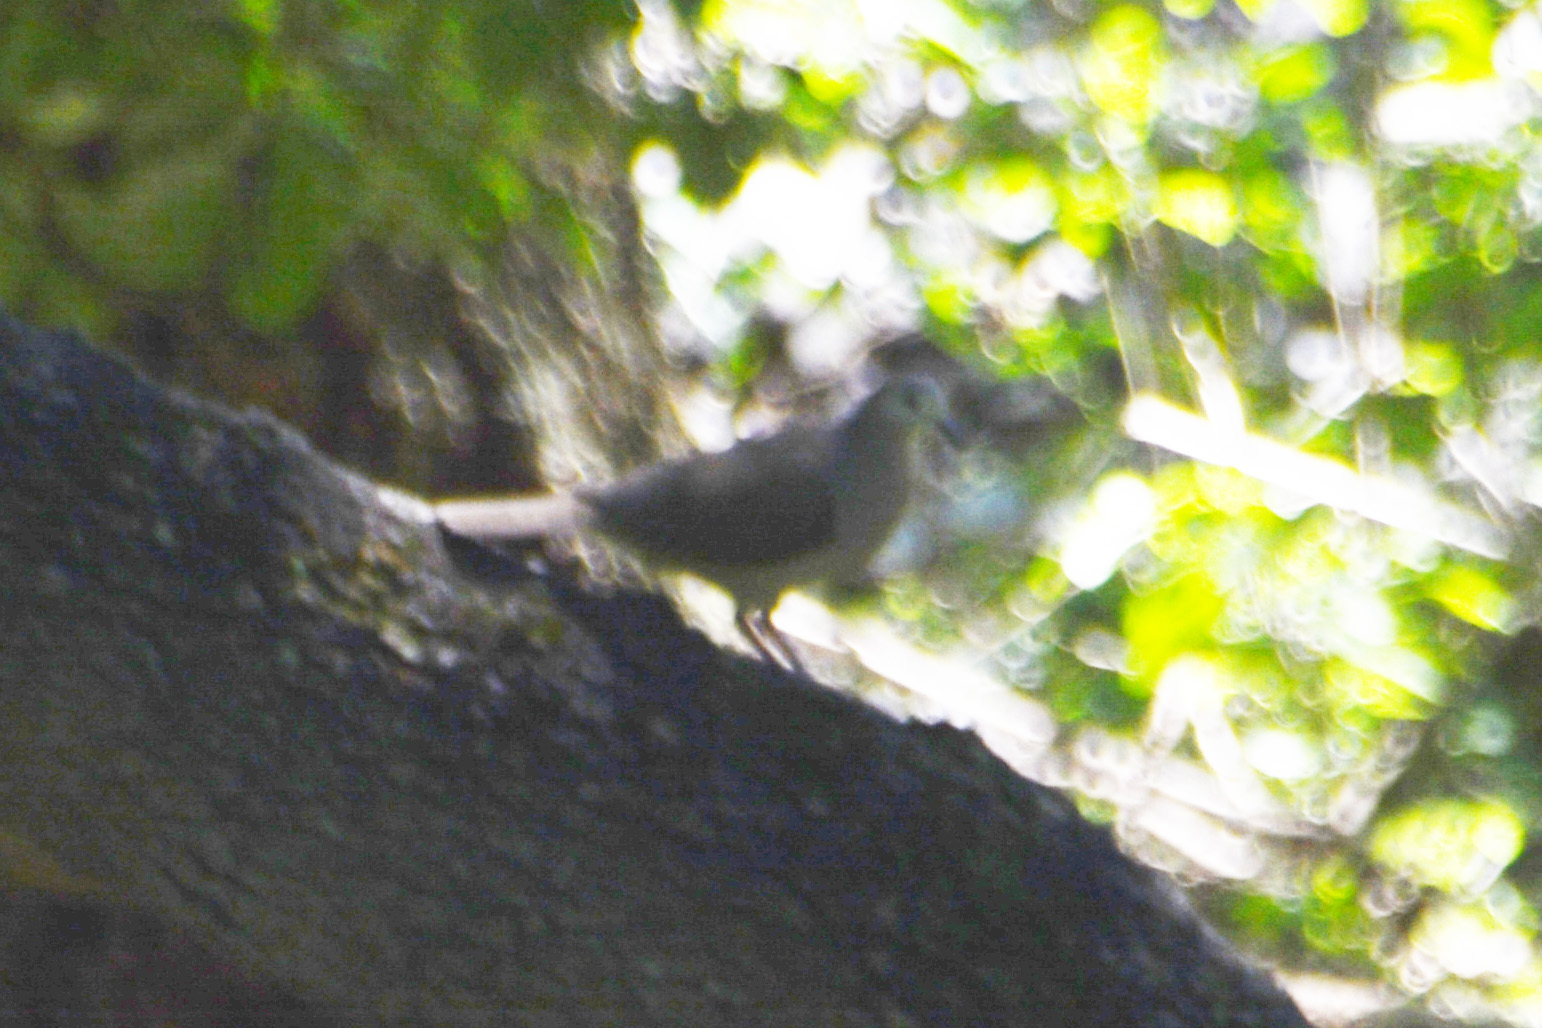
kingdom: Animalia
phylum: Chordata
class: Aves
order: Columbiformes
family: Columbidae
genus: Leptotila
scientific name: Leptotila megalura
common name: Yungas dove
